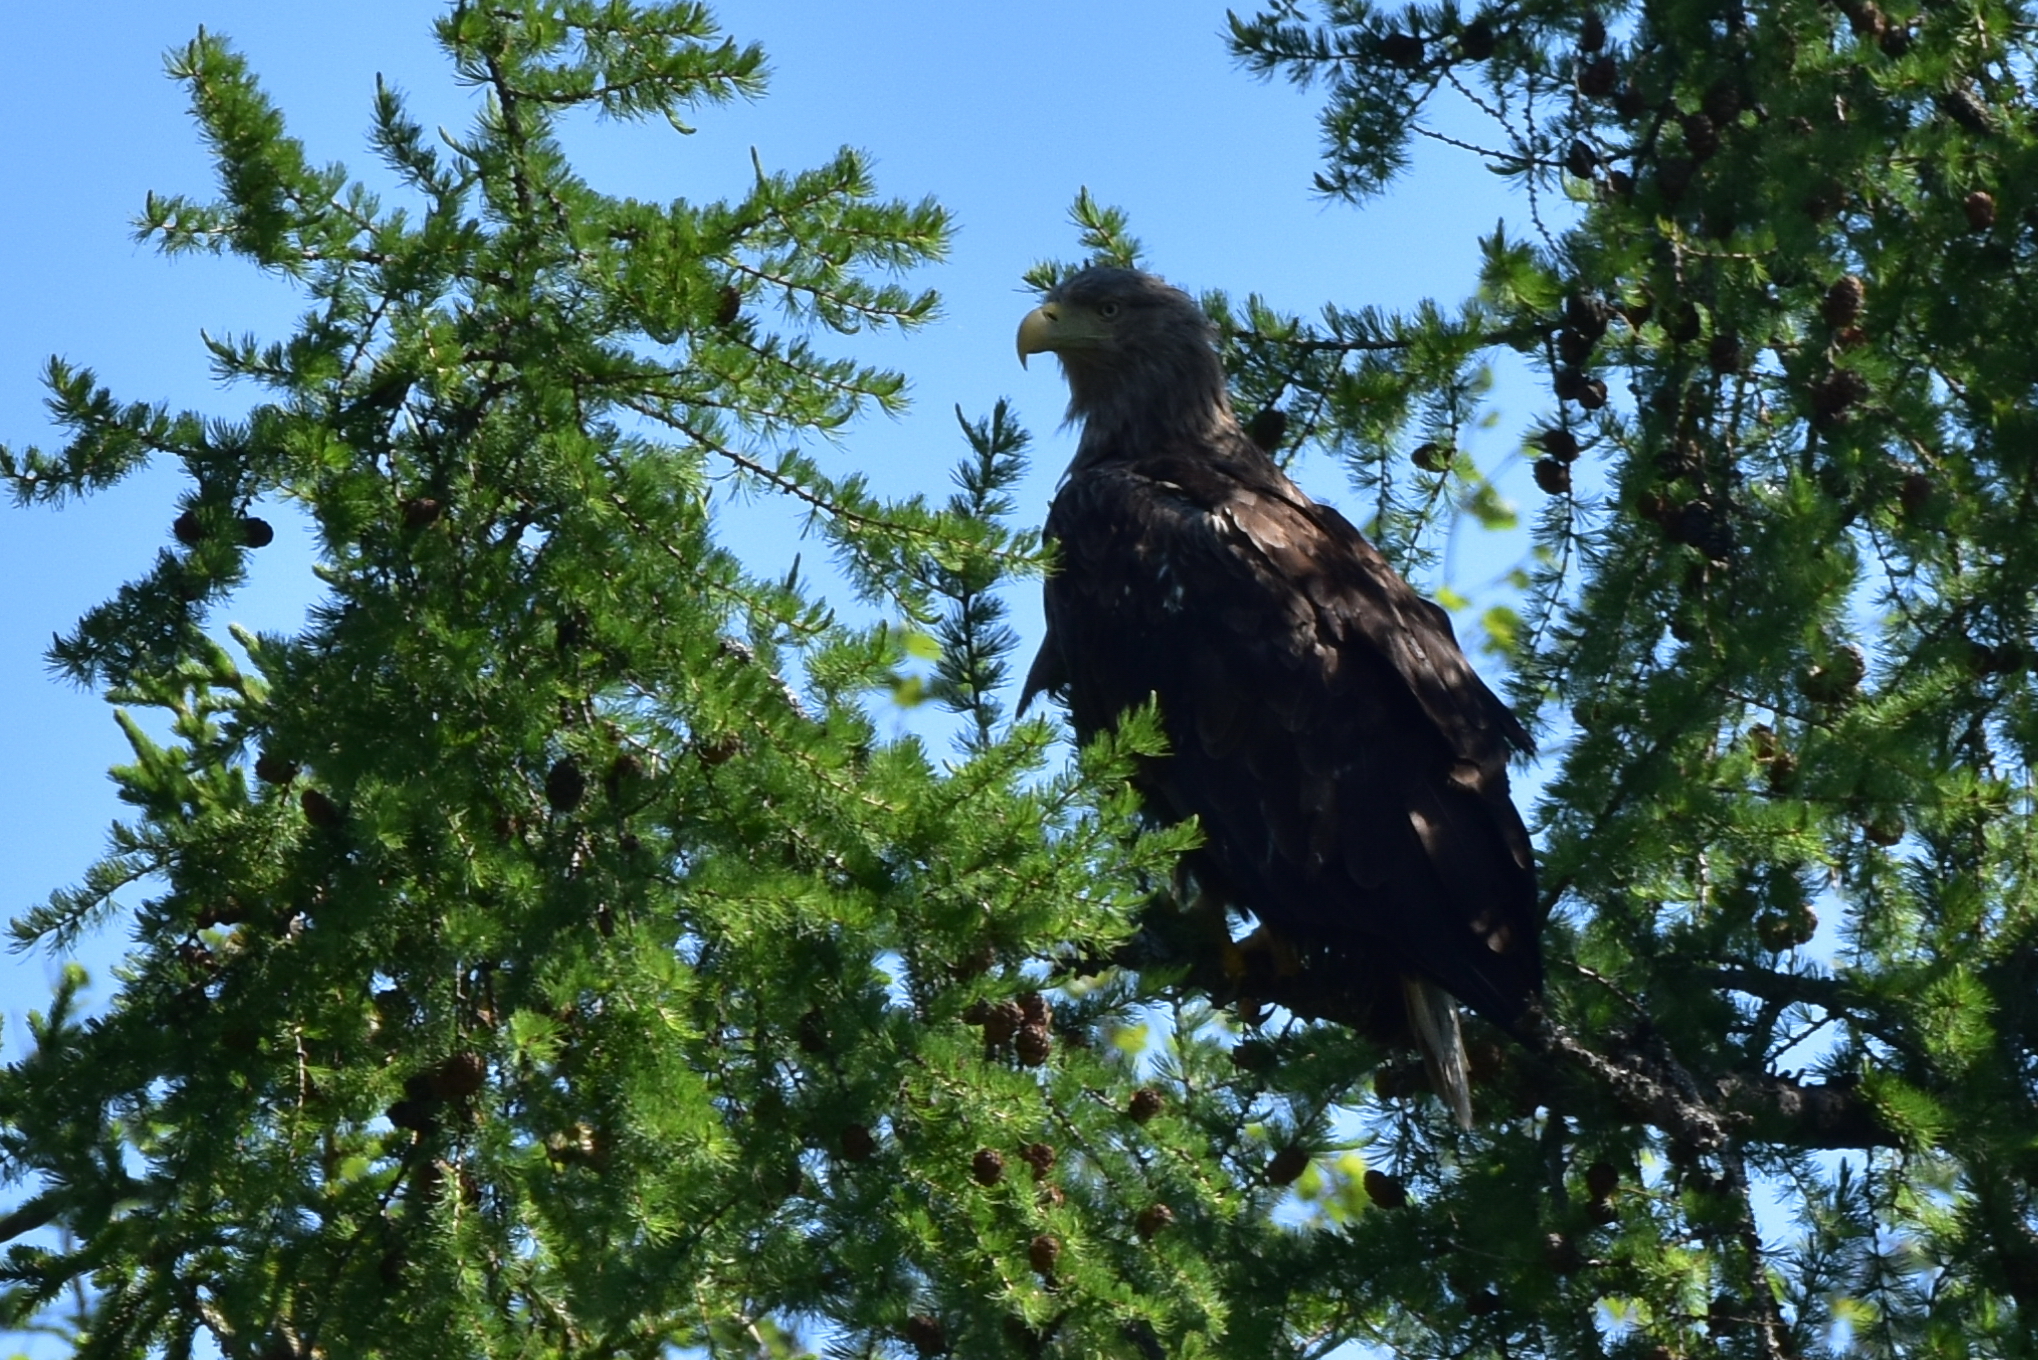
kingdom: Animalia
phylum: Chordata
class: Aves
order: Accipitriformes
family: Accipitridae
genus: Haliaeetus
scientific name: Haliaeetus albicilla
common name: White-tailed eagle
